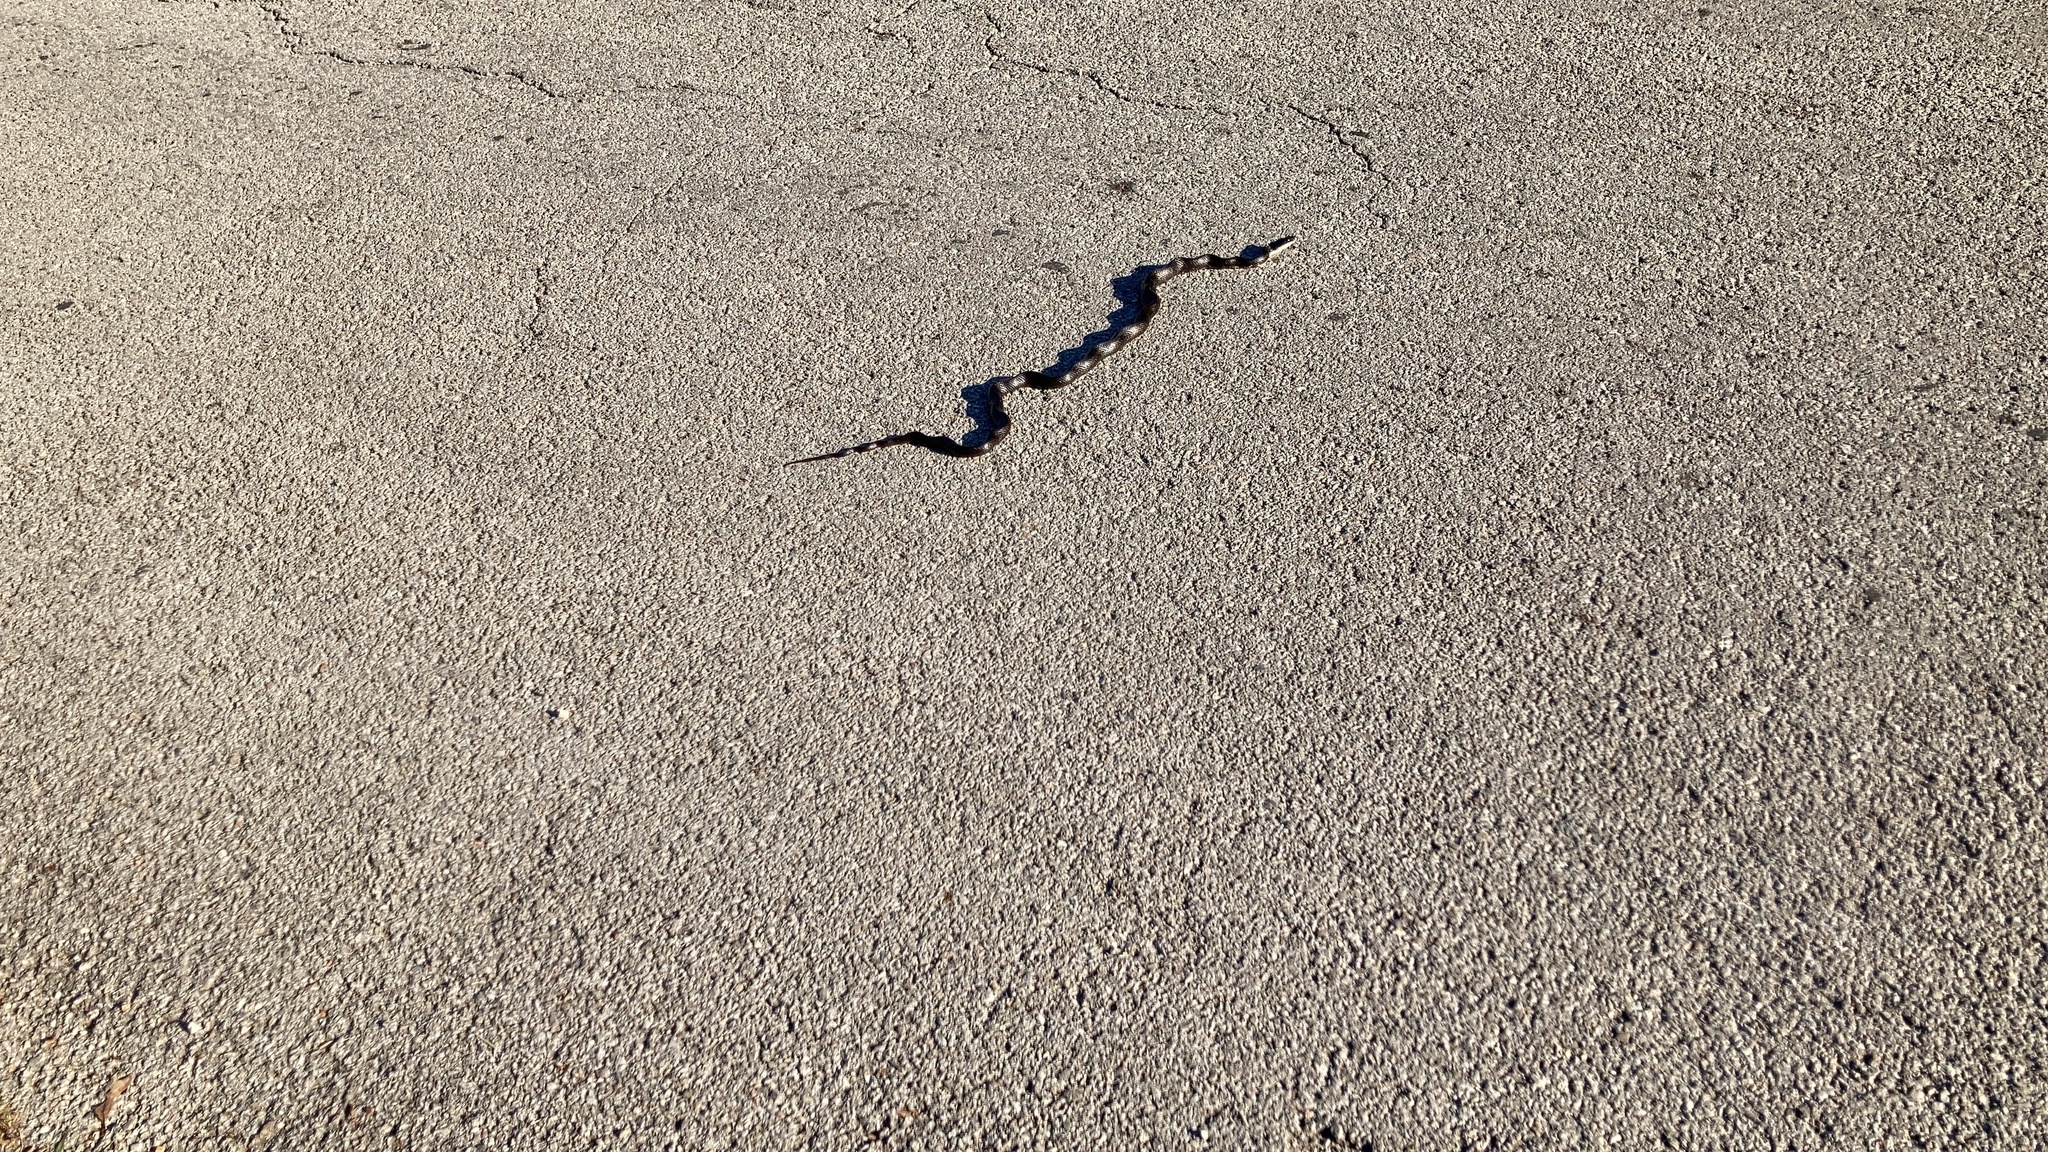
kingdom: Animalia
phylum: Chordata
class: Squamata
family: Colubridae
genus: Pantherophis
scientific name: Pantherophis obsoletus
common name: Black rat snake
